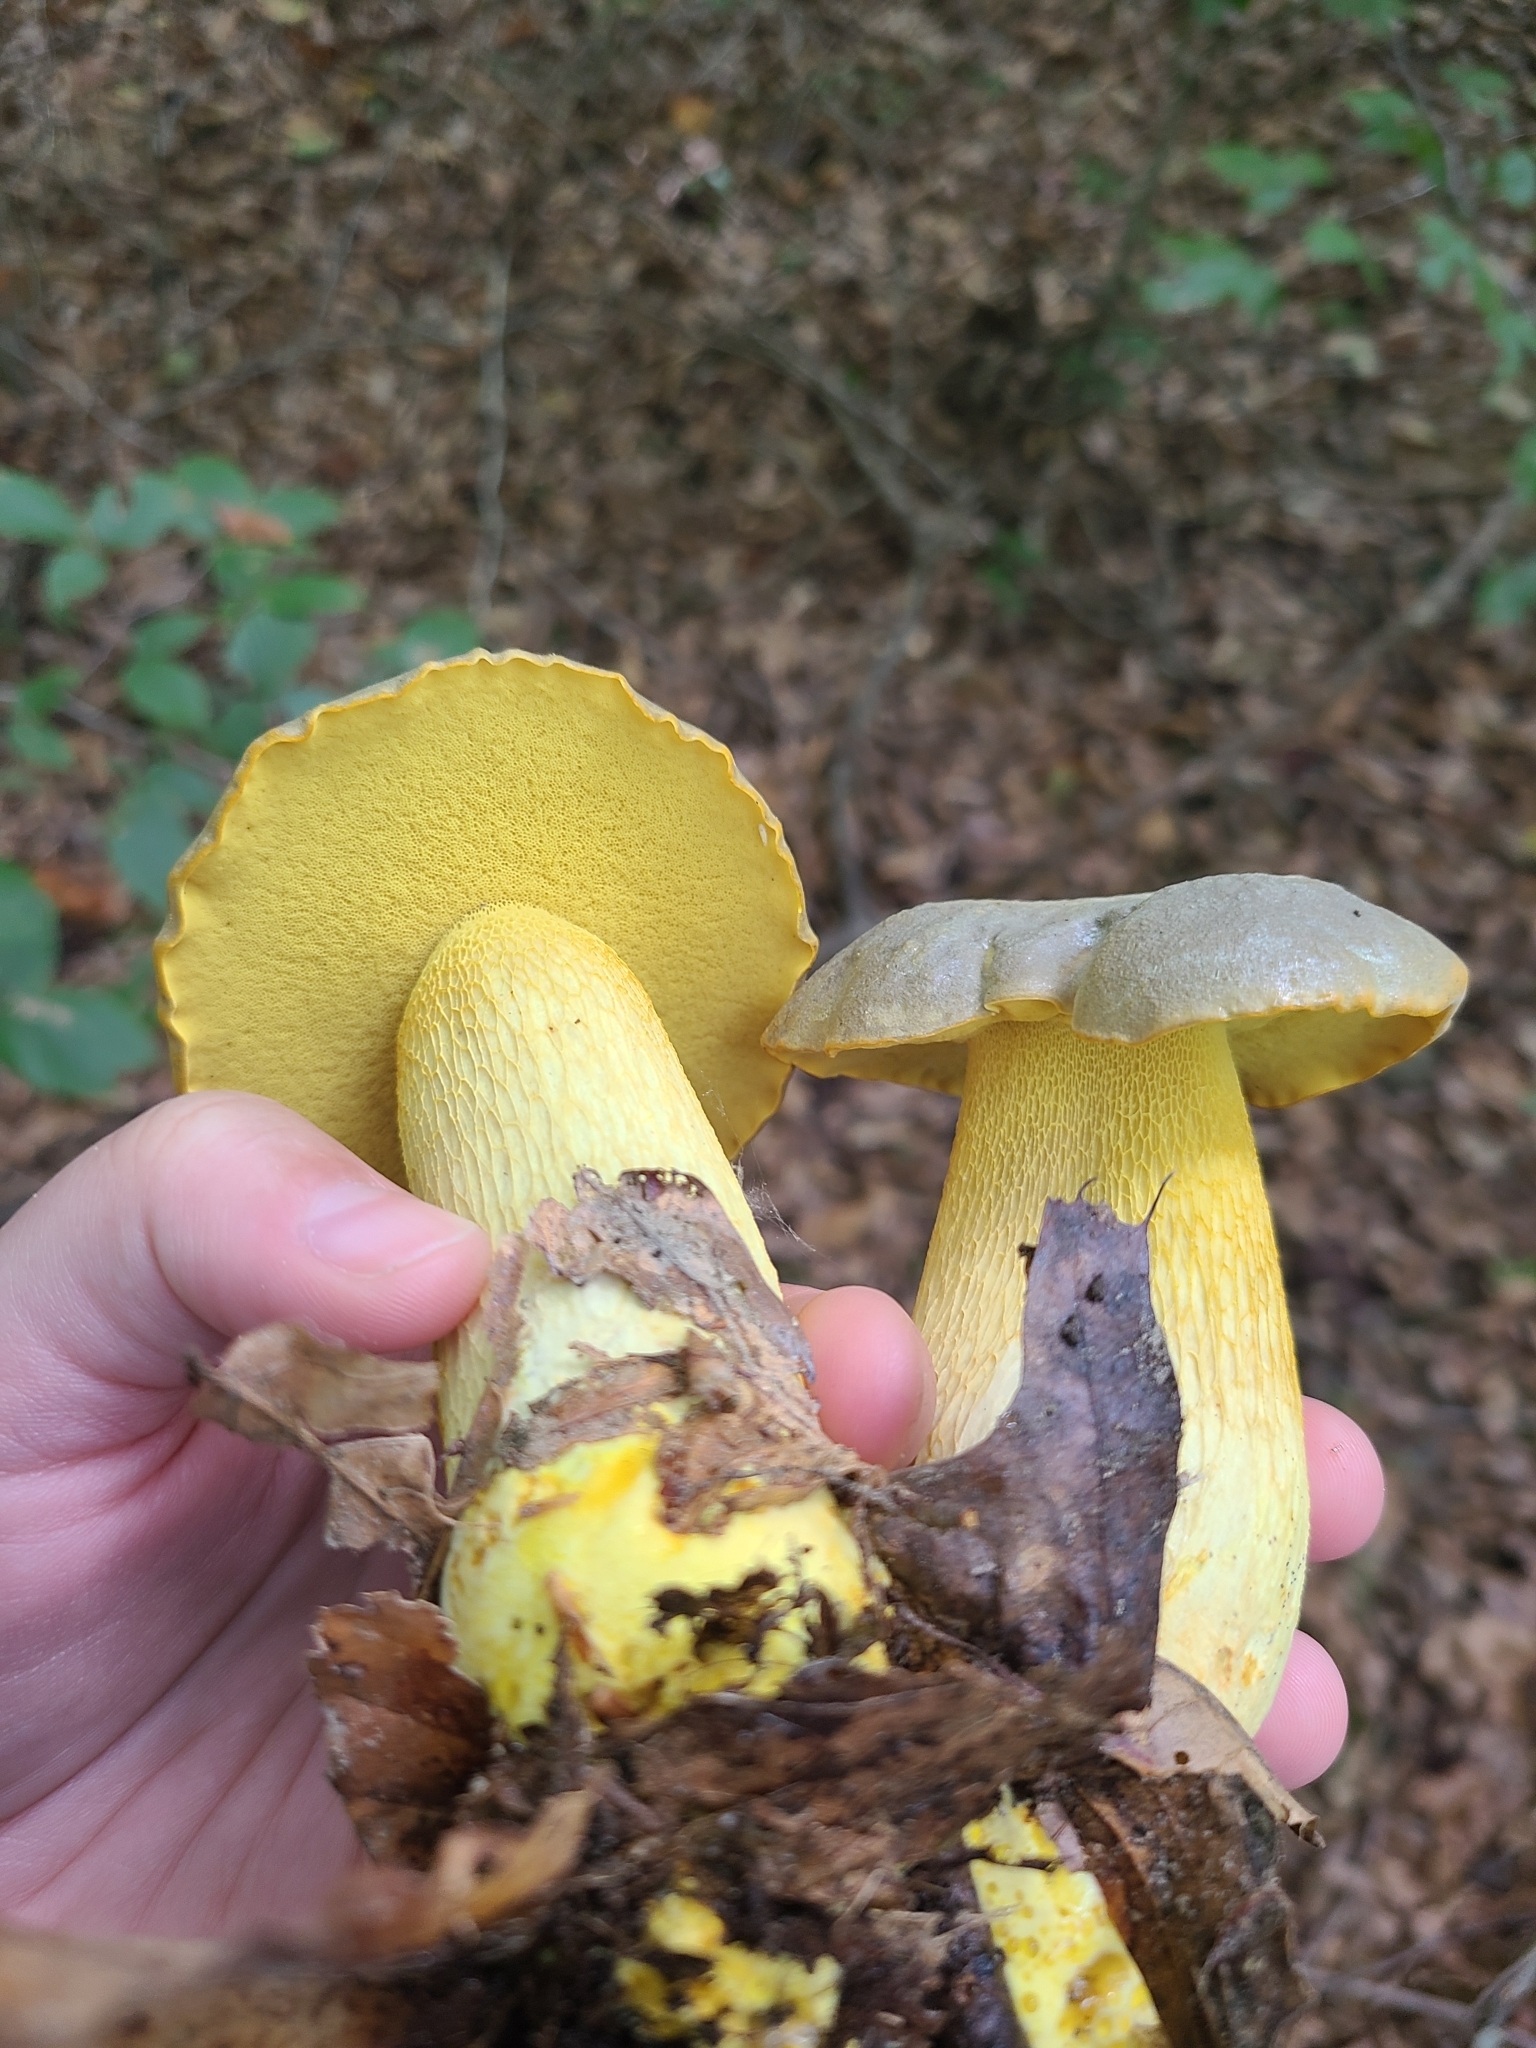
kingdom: Fungi
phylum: Basidiomycota
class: Agaricomycetes
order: Boletales
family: Boletaceae
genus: Retiboletus
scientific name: Retiboletus ornatipes
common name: Ornate-stalked bolete
